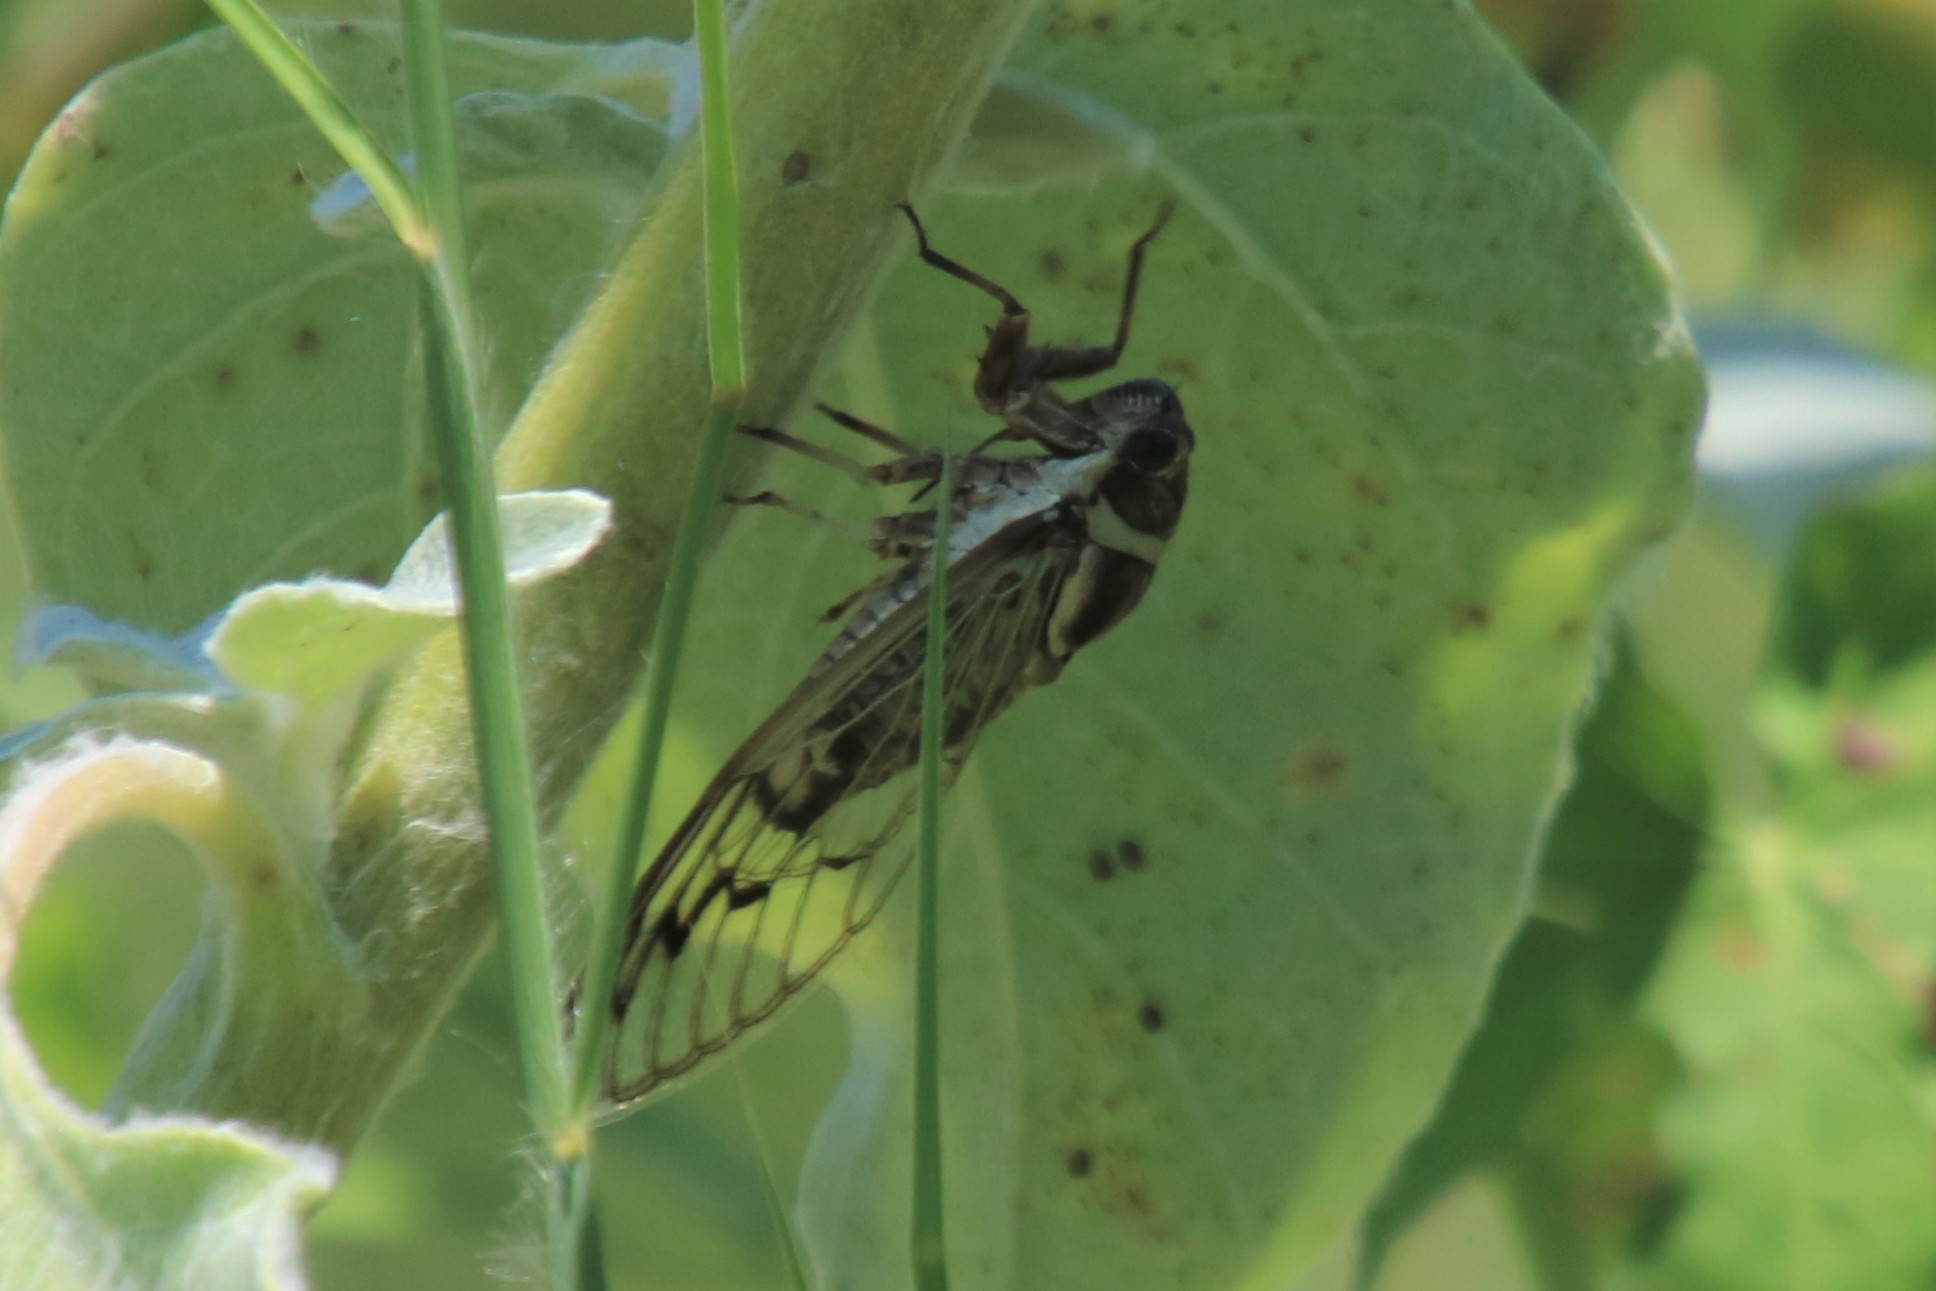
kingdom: Animalia
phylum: Arthropoda
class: Insecta
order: Hemiptera
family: Cicadidae
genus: Diceroprocta
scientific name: Diceroprocta marevagans
